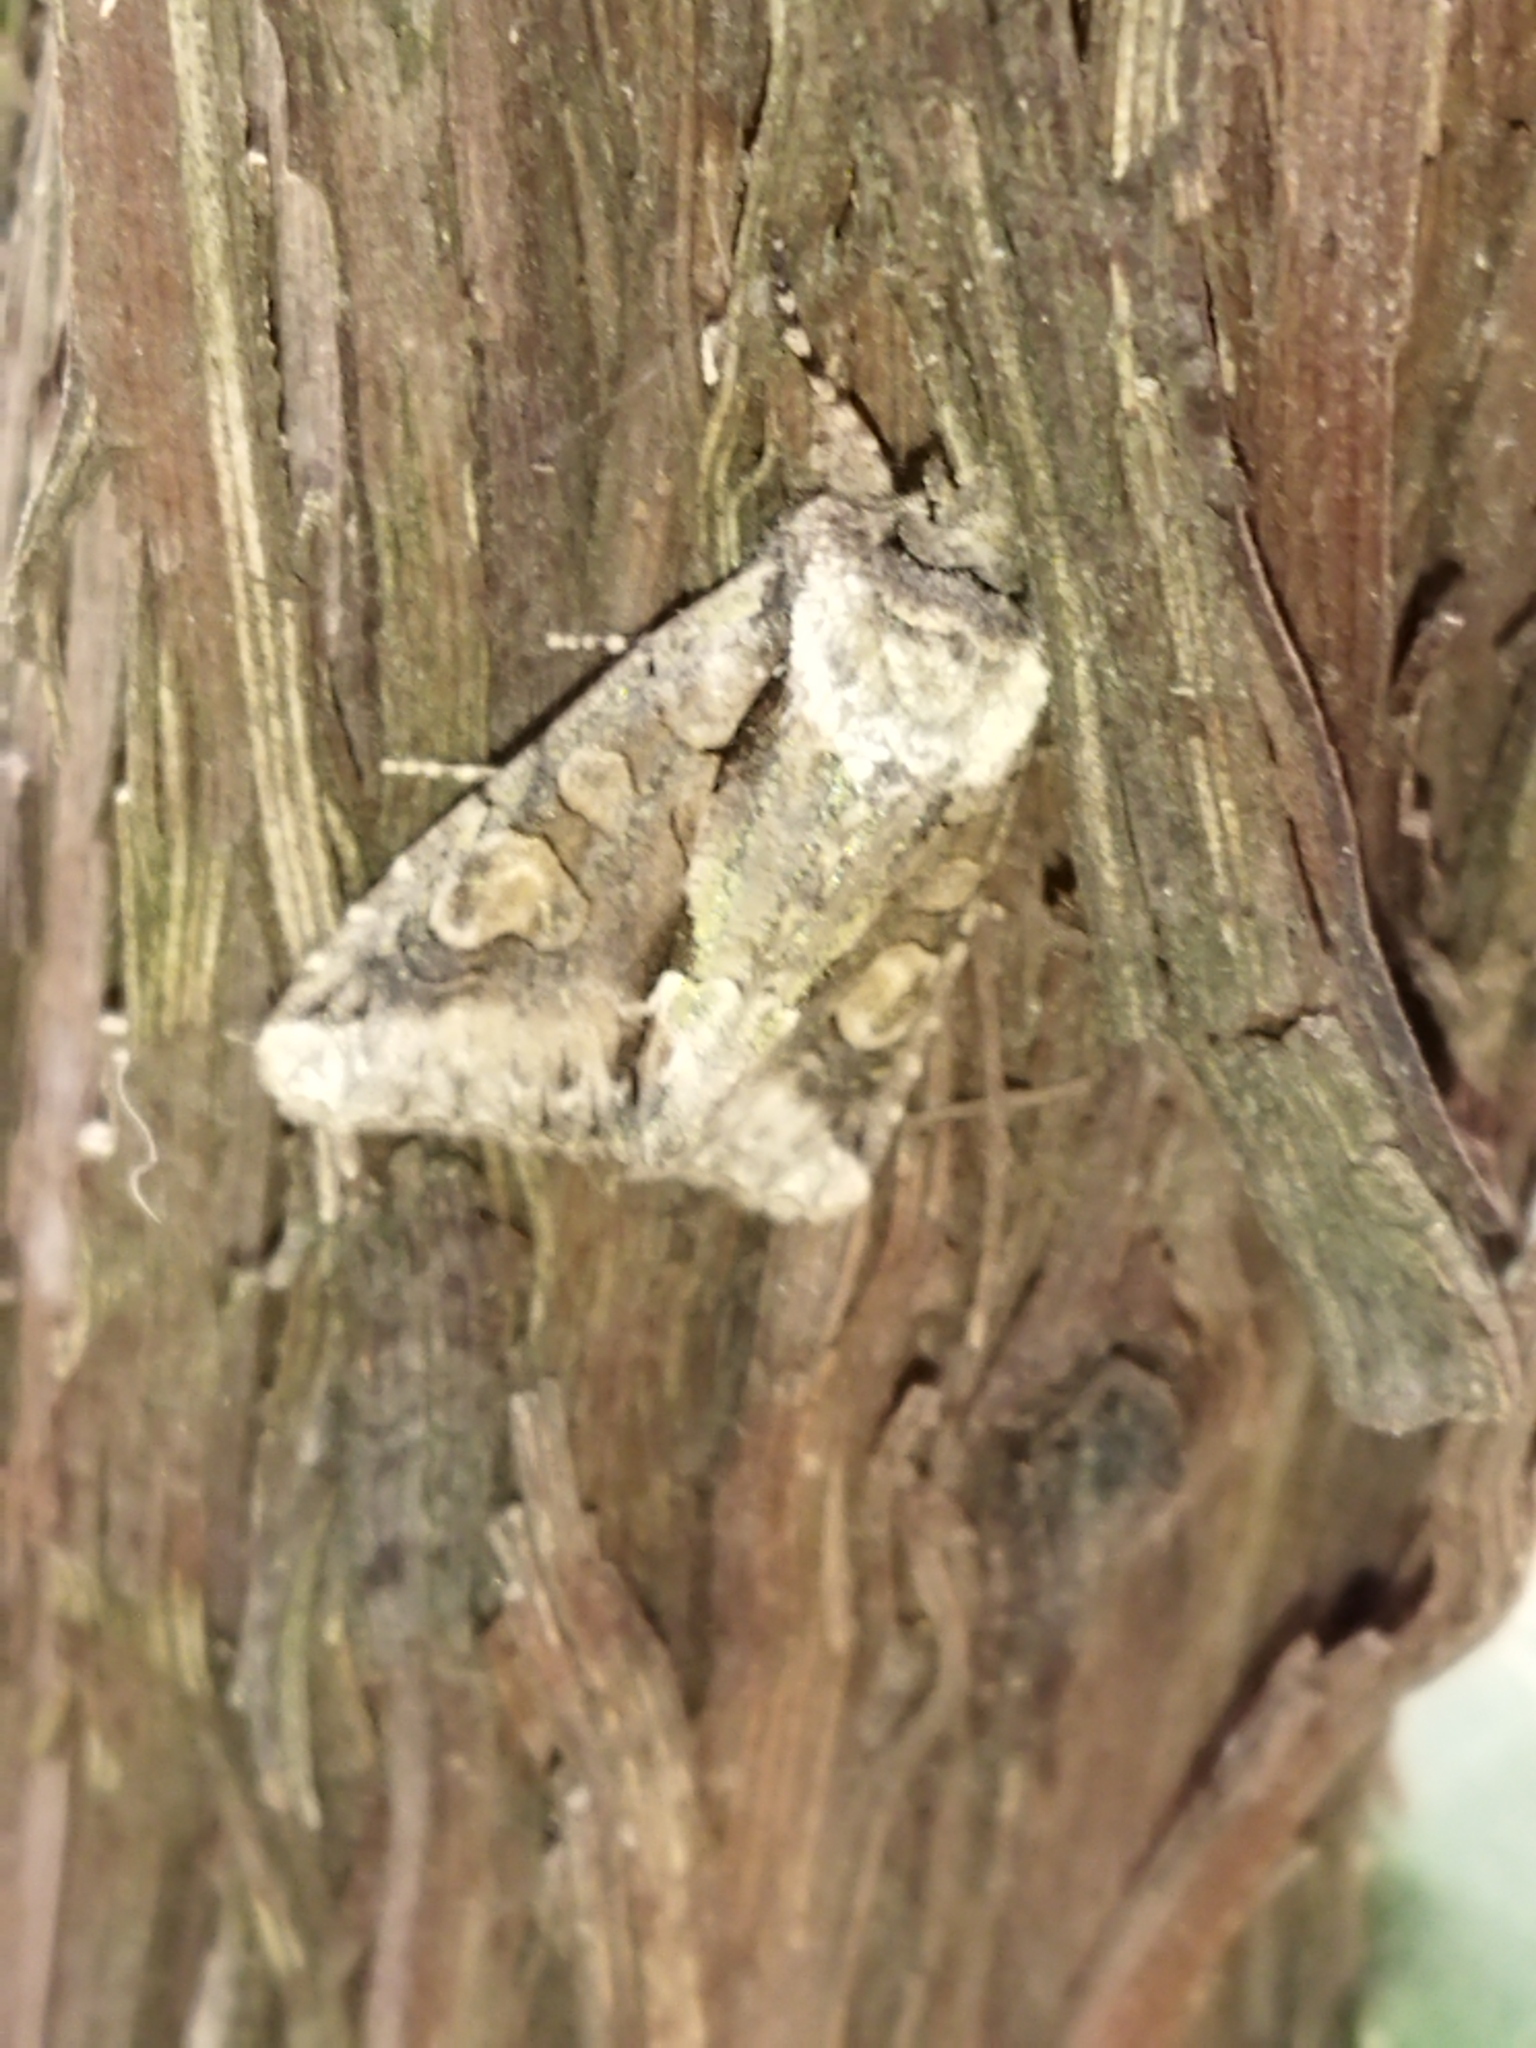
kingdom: Animalia
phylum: Arthropoda
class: Insecta
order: Lepidoptera
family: Noctuidae
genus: Allophyes
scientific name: Allophyes oxyacanthae
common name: Green-brindled crescent
